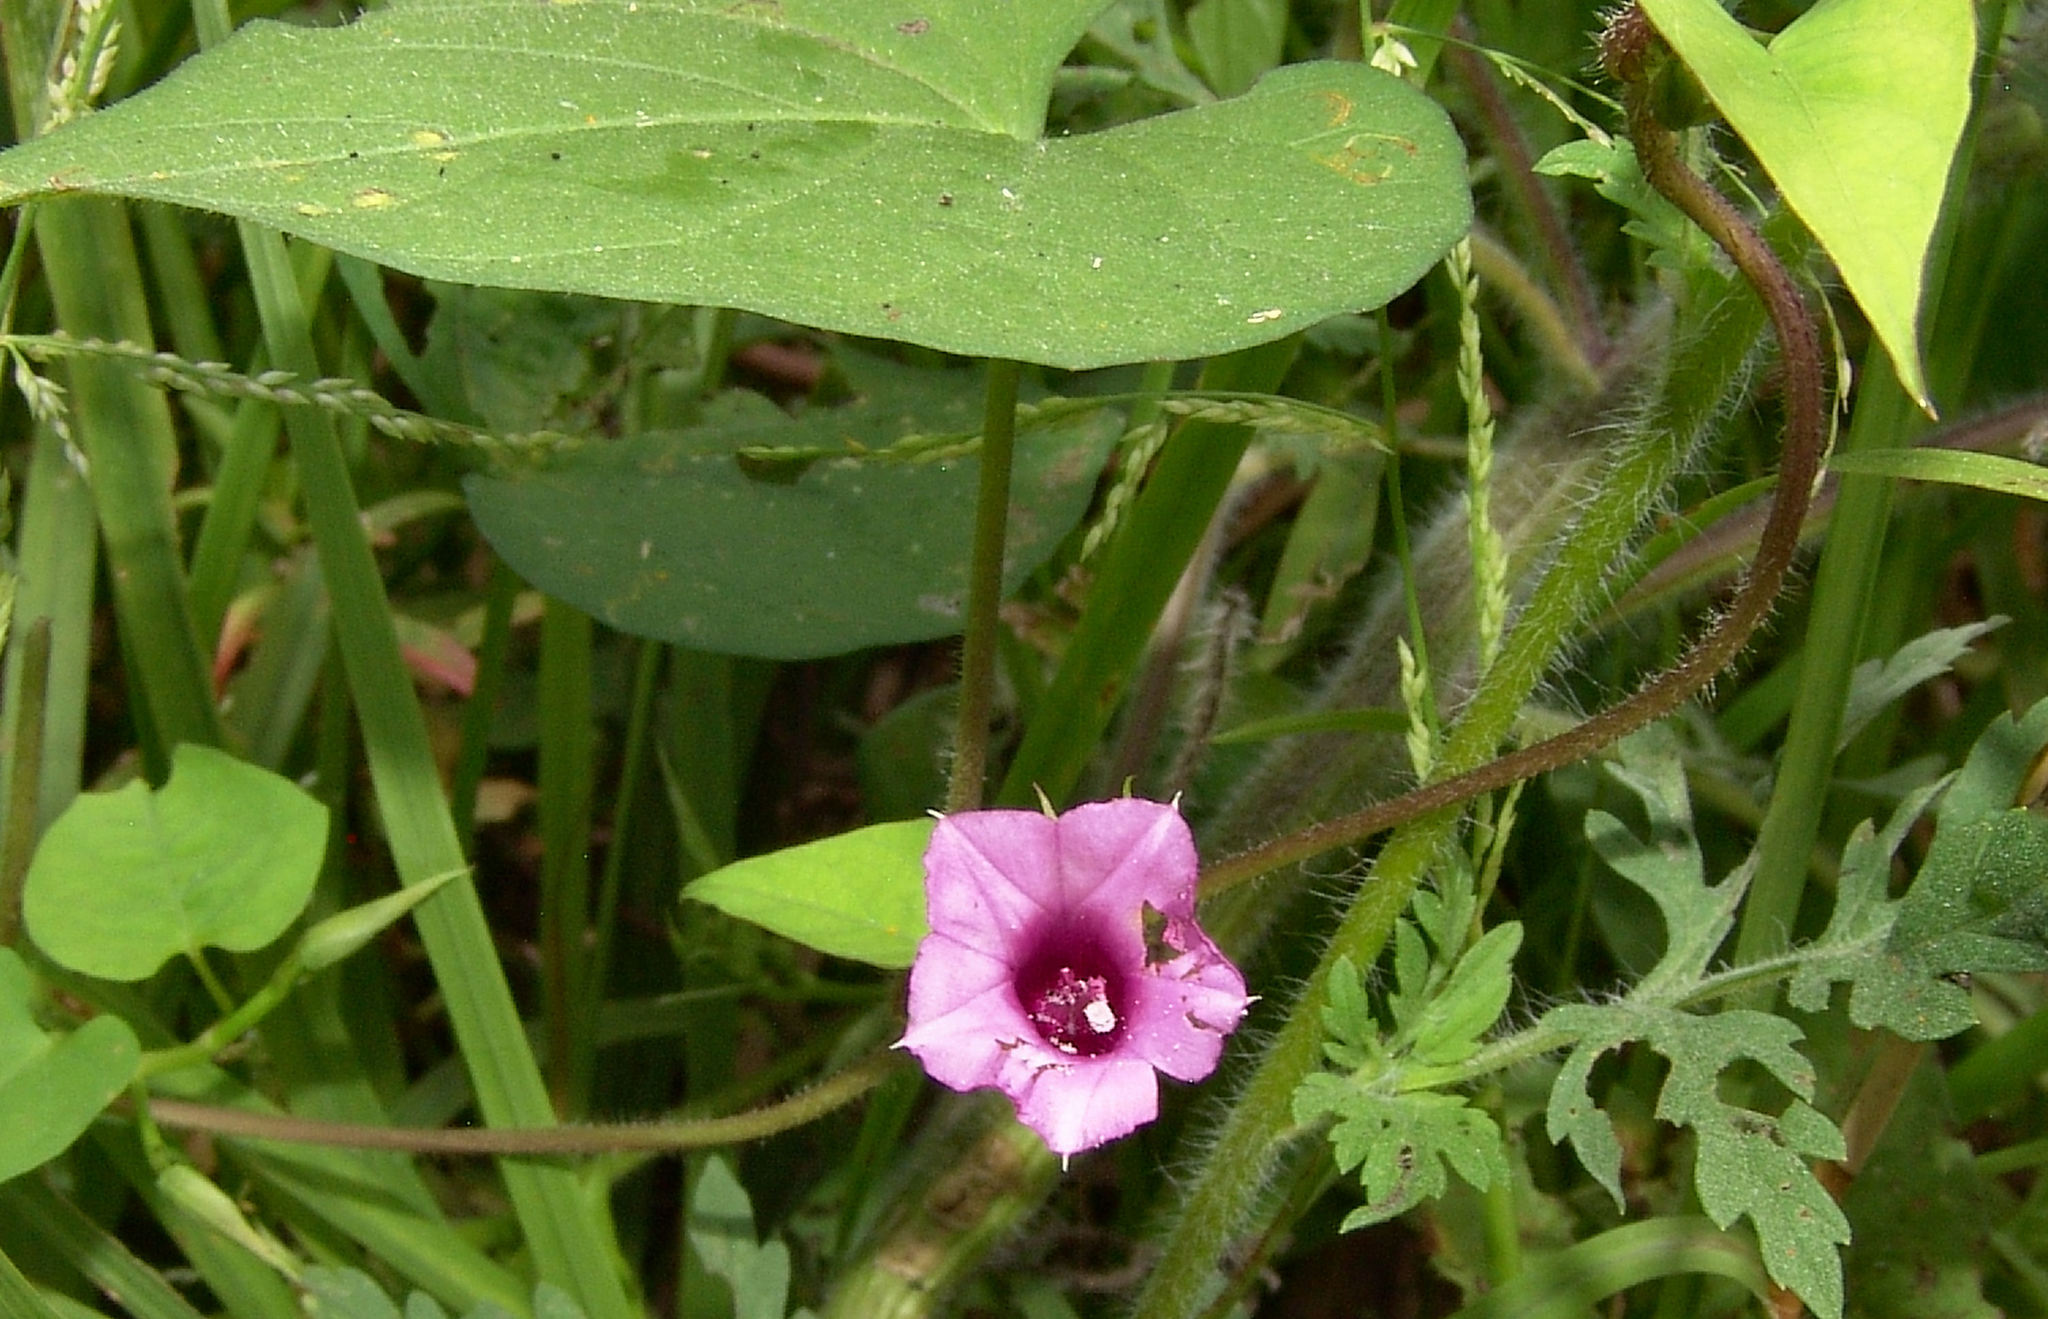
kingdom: Plantae
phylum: Tracheophyta
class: Magnoliopsida
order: Solanales
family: Convolvulaceae
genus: Ipomoea
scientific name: Ipomoea leucantha
